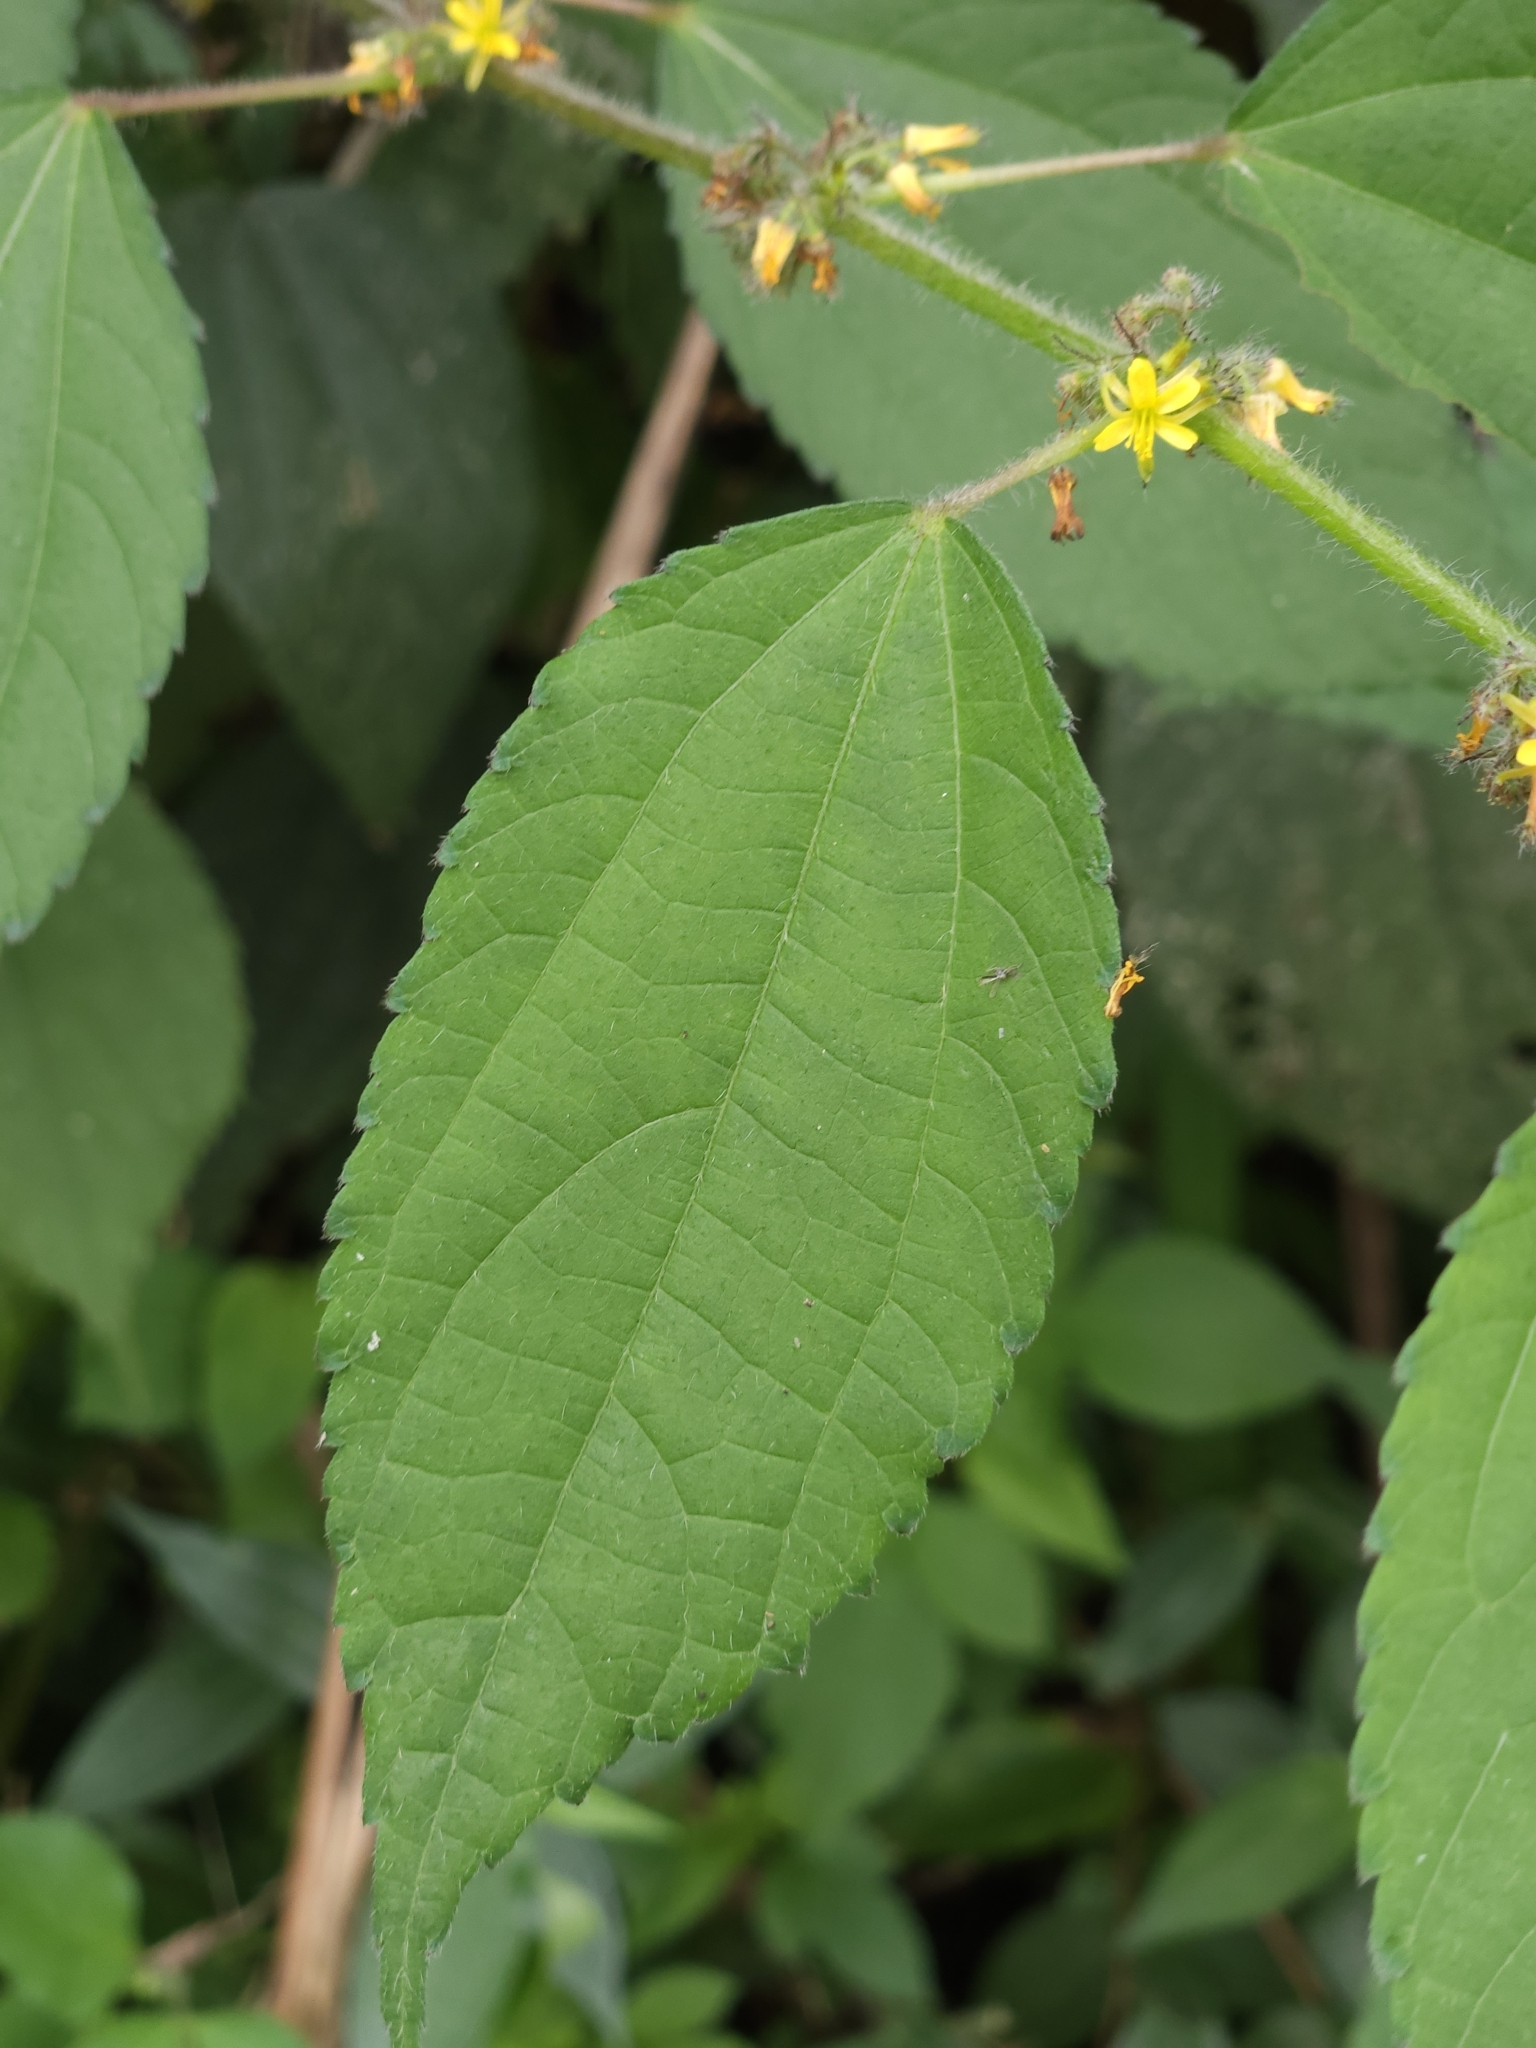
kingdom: Plantae
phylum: Tracheophyta
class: Magnoliopsida
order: Malvales
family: Malvaceae
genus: Triumfetta
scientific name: Triumfetta pilosa
